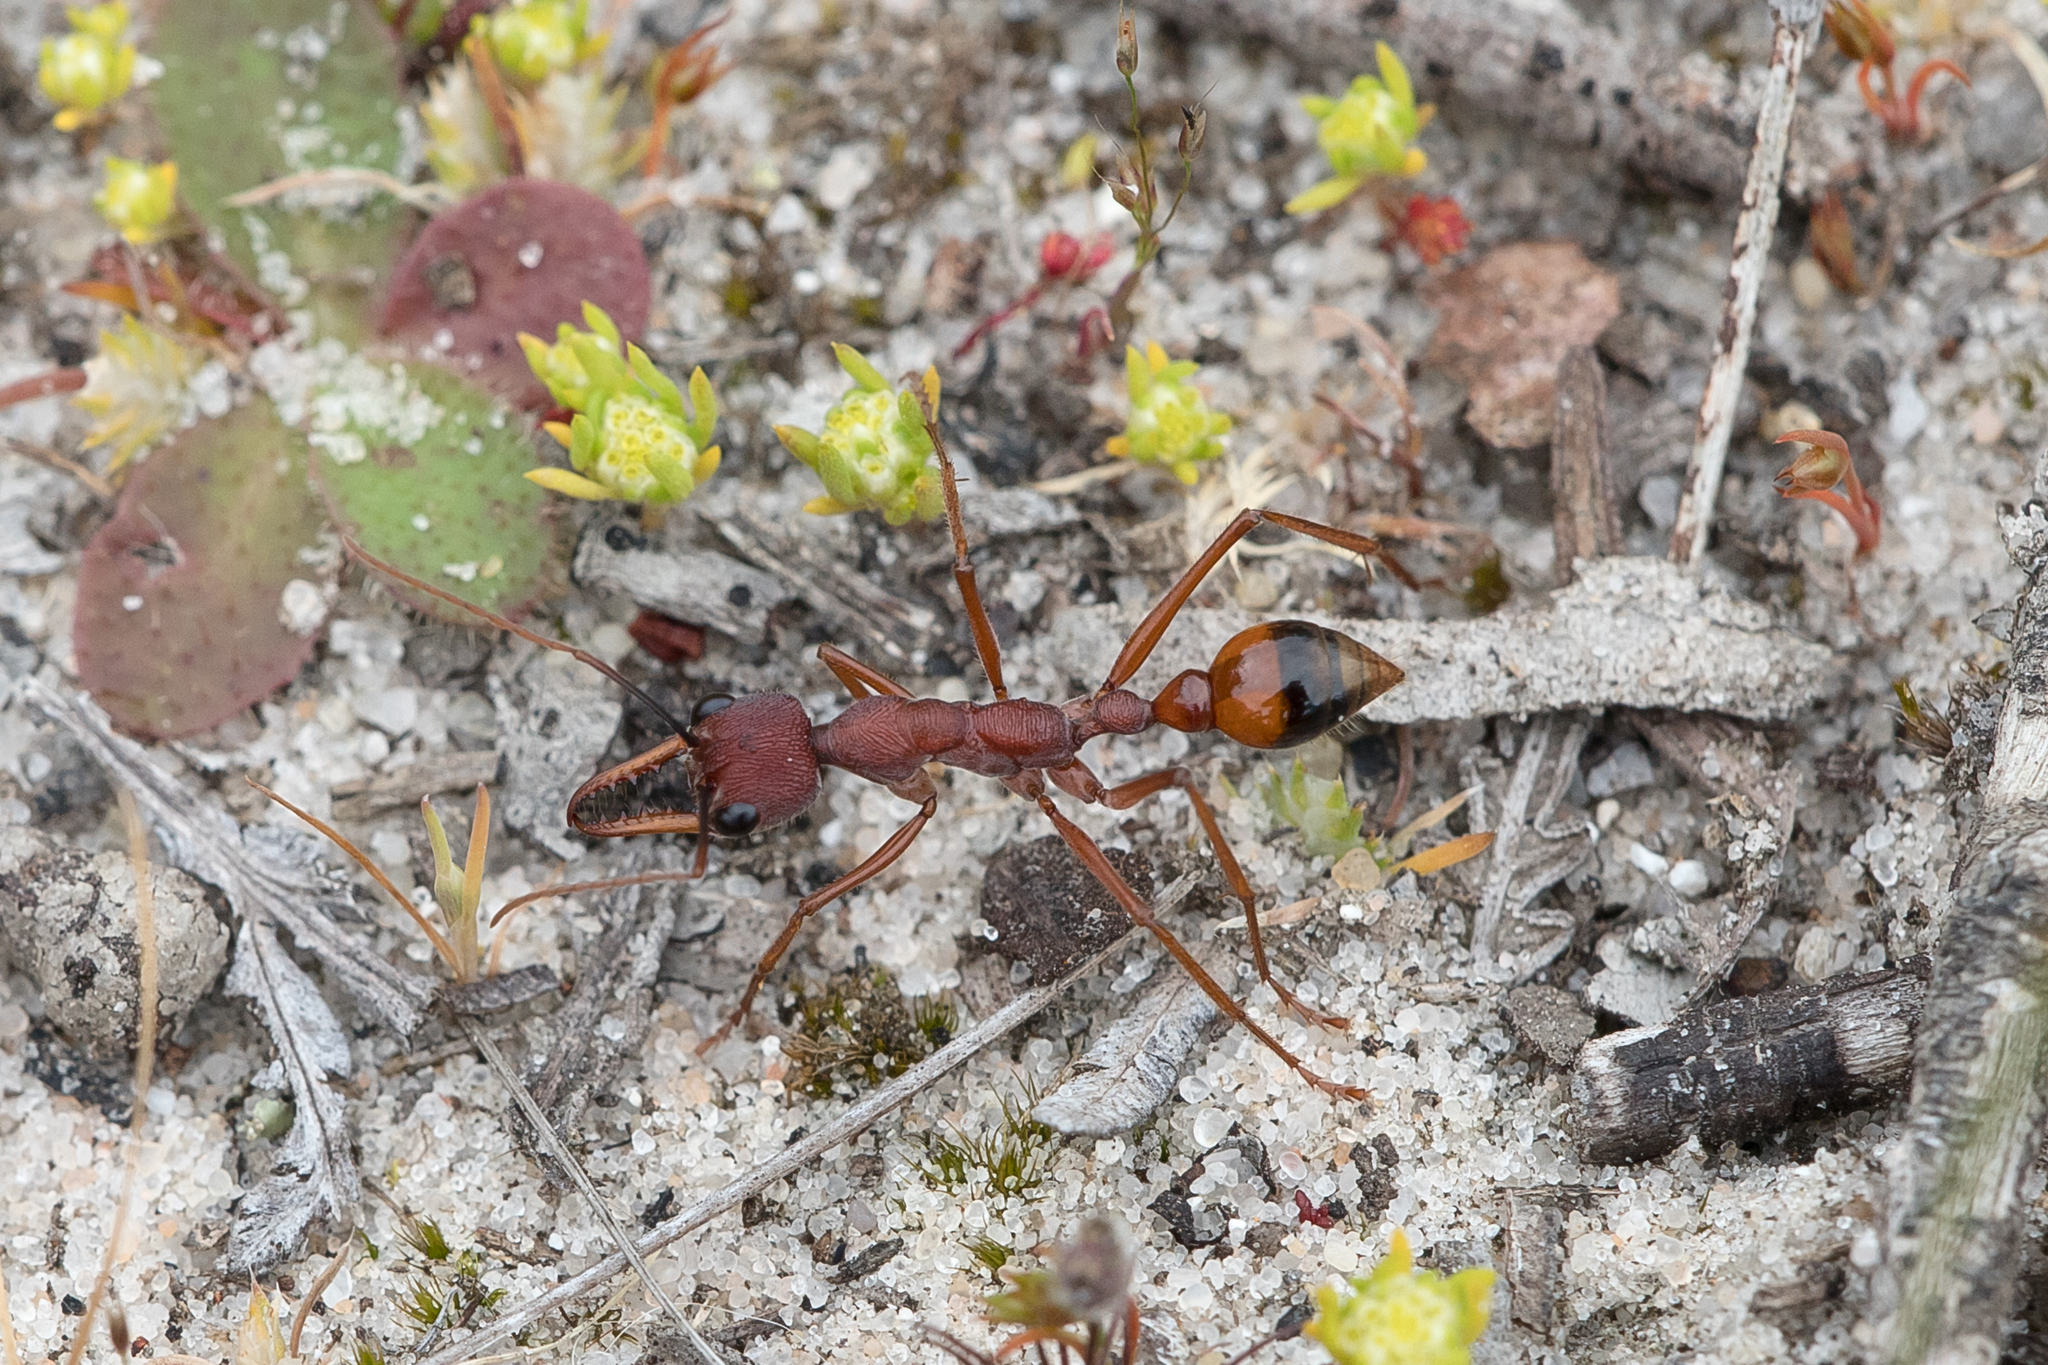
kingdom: Animalia
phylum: Arthropoda
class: Insecta
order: Hymenoptera
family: Formicidae
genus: Myrmecia
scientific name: Myrmecia nigriscapa
